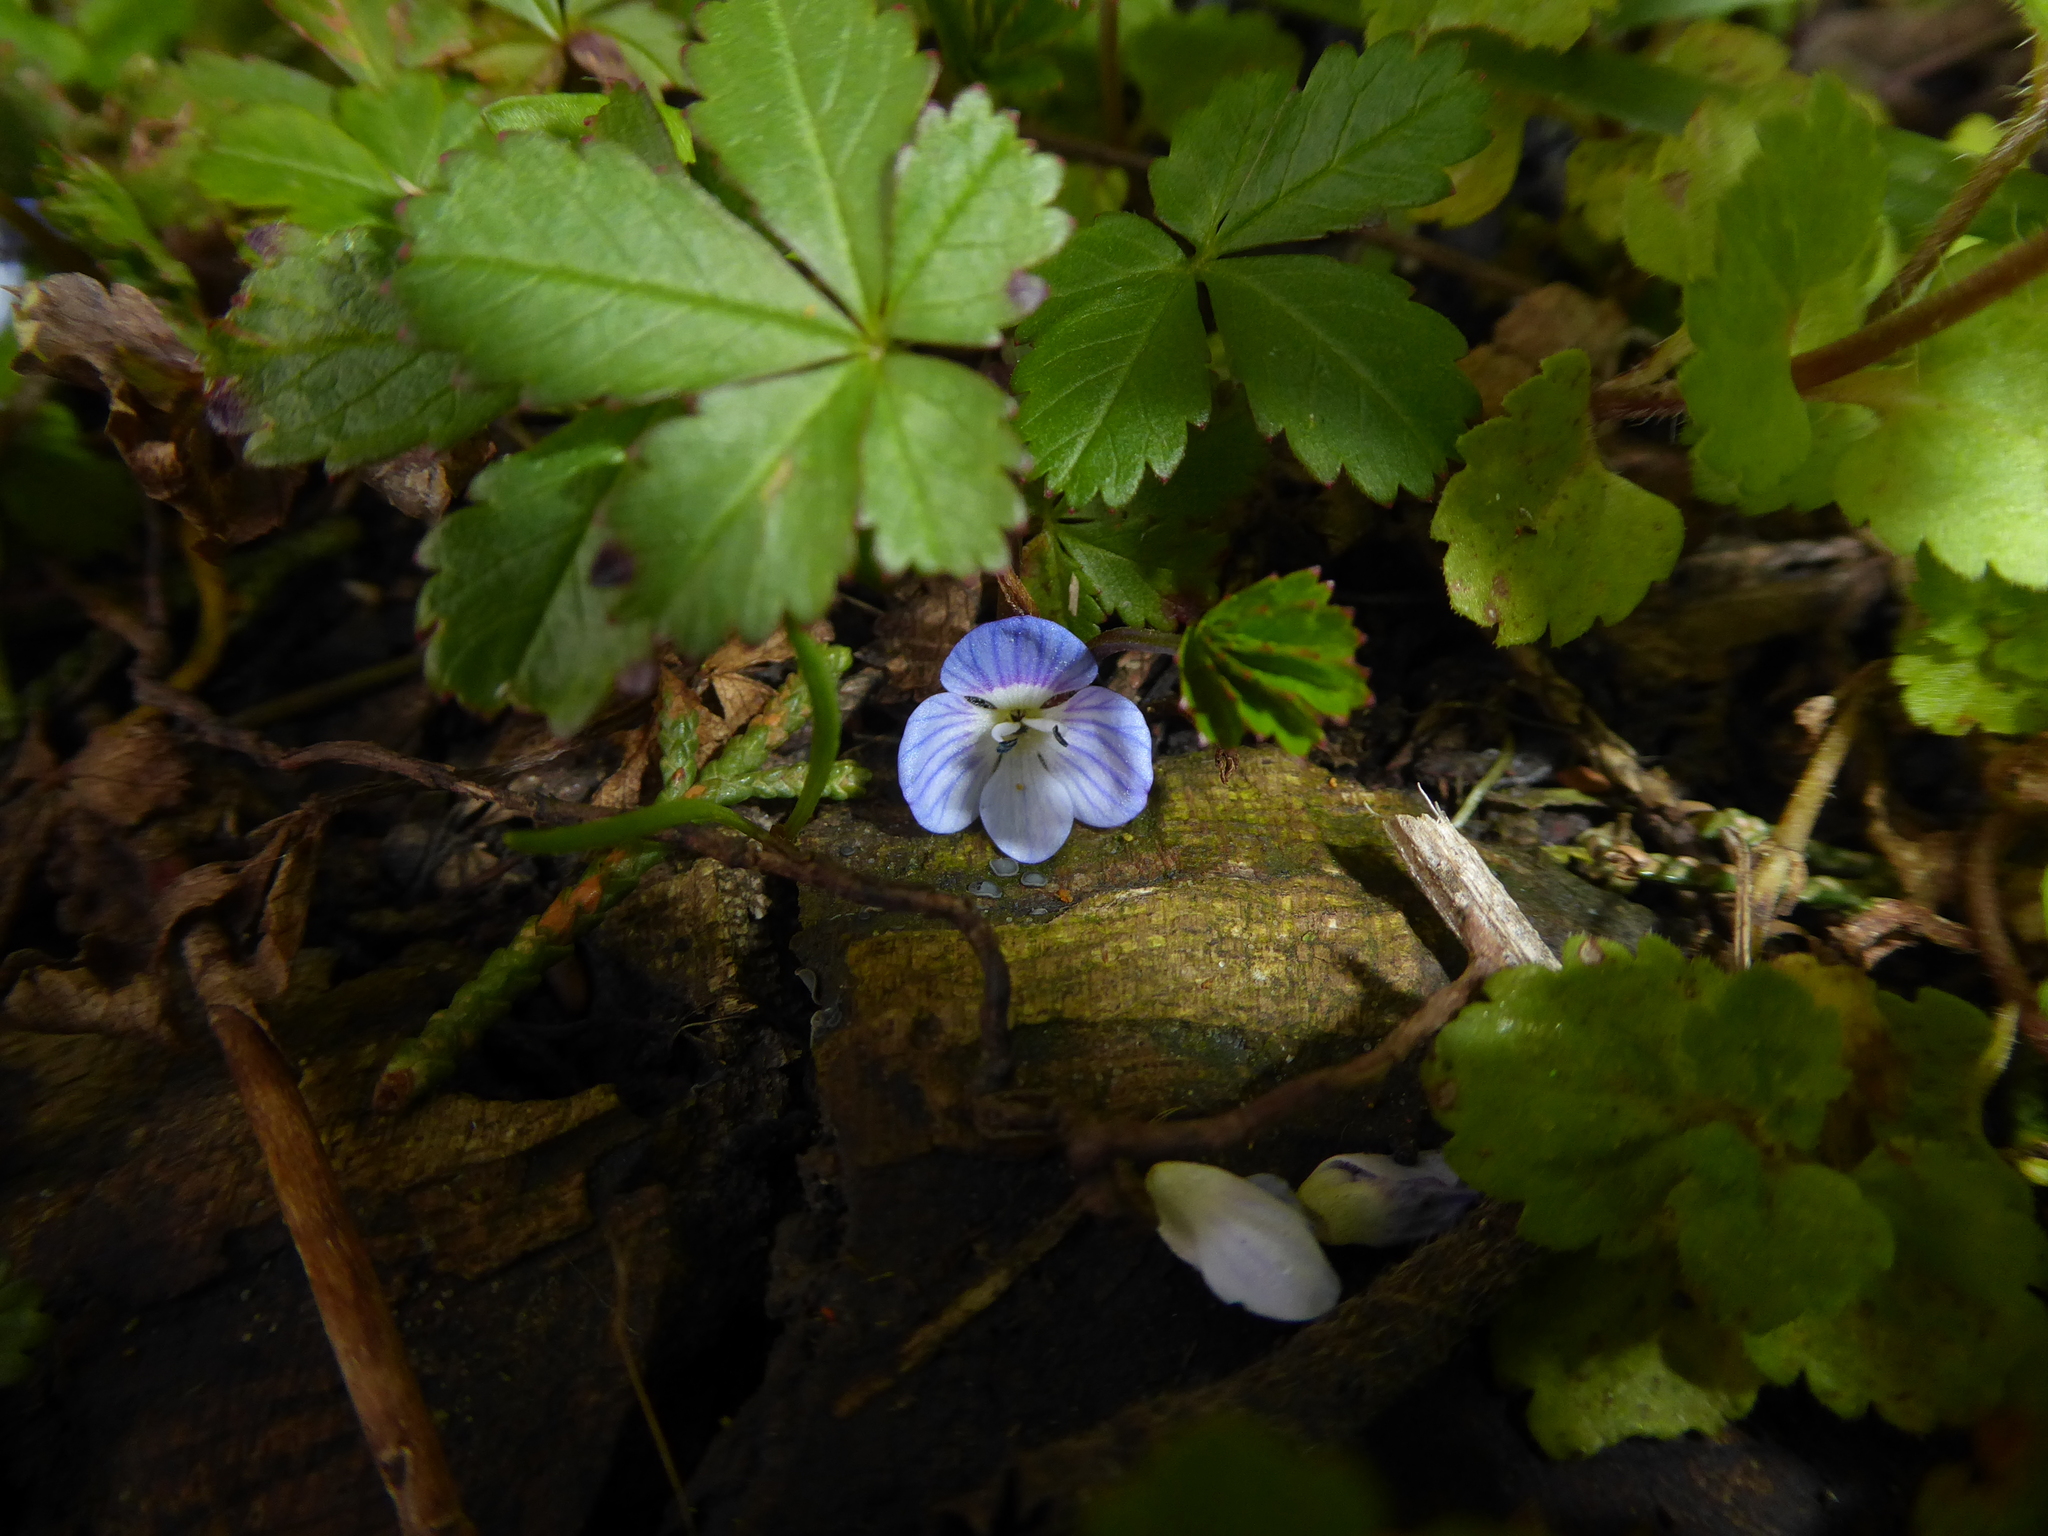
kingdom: Plantae
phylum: Tracheophyta
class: Magnoliopsida
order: Lamiales
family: Plantaginaceae
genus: Veronica
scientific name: Veronica persica
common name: Common field-speedwell
